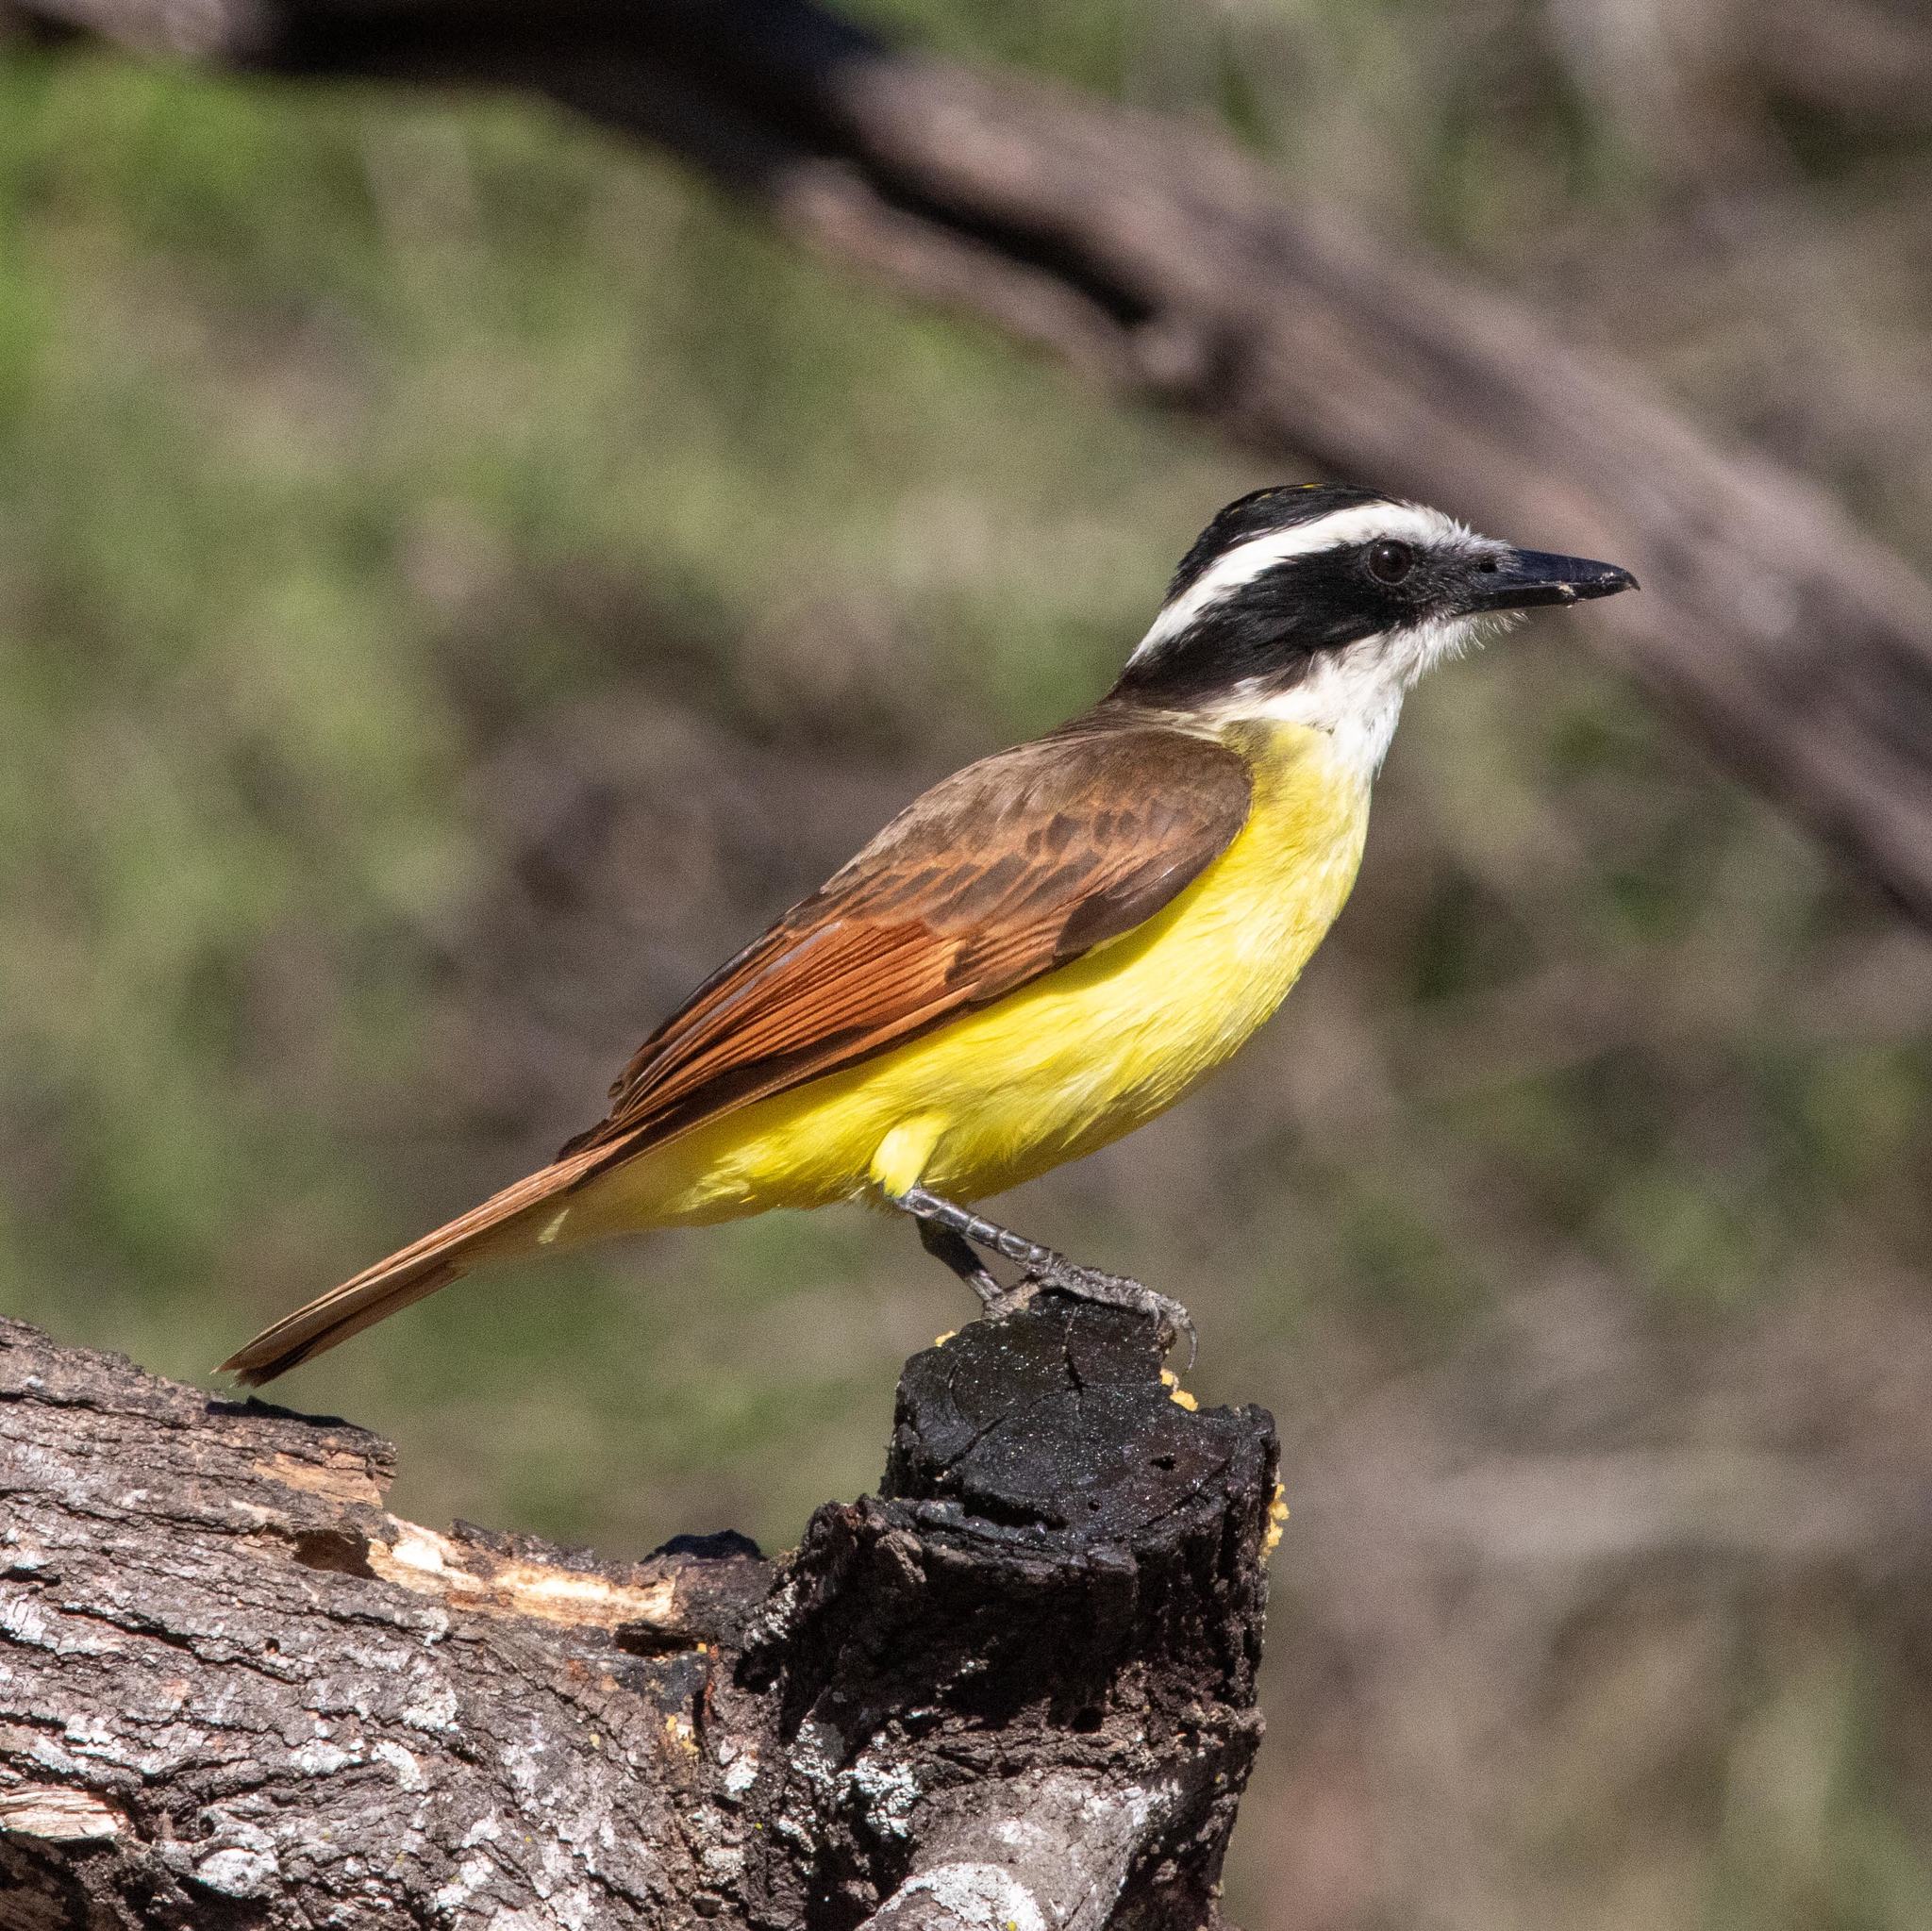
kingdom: Animalia
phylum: Chordata
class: Aves
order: Passeriformes
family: Tyrannidae
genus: Pitangus
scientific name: Pitangus sulphuratus
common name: Great kiskadee
